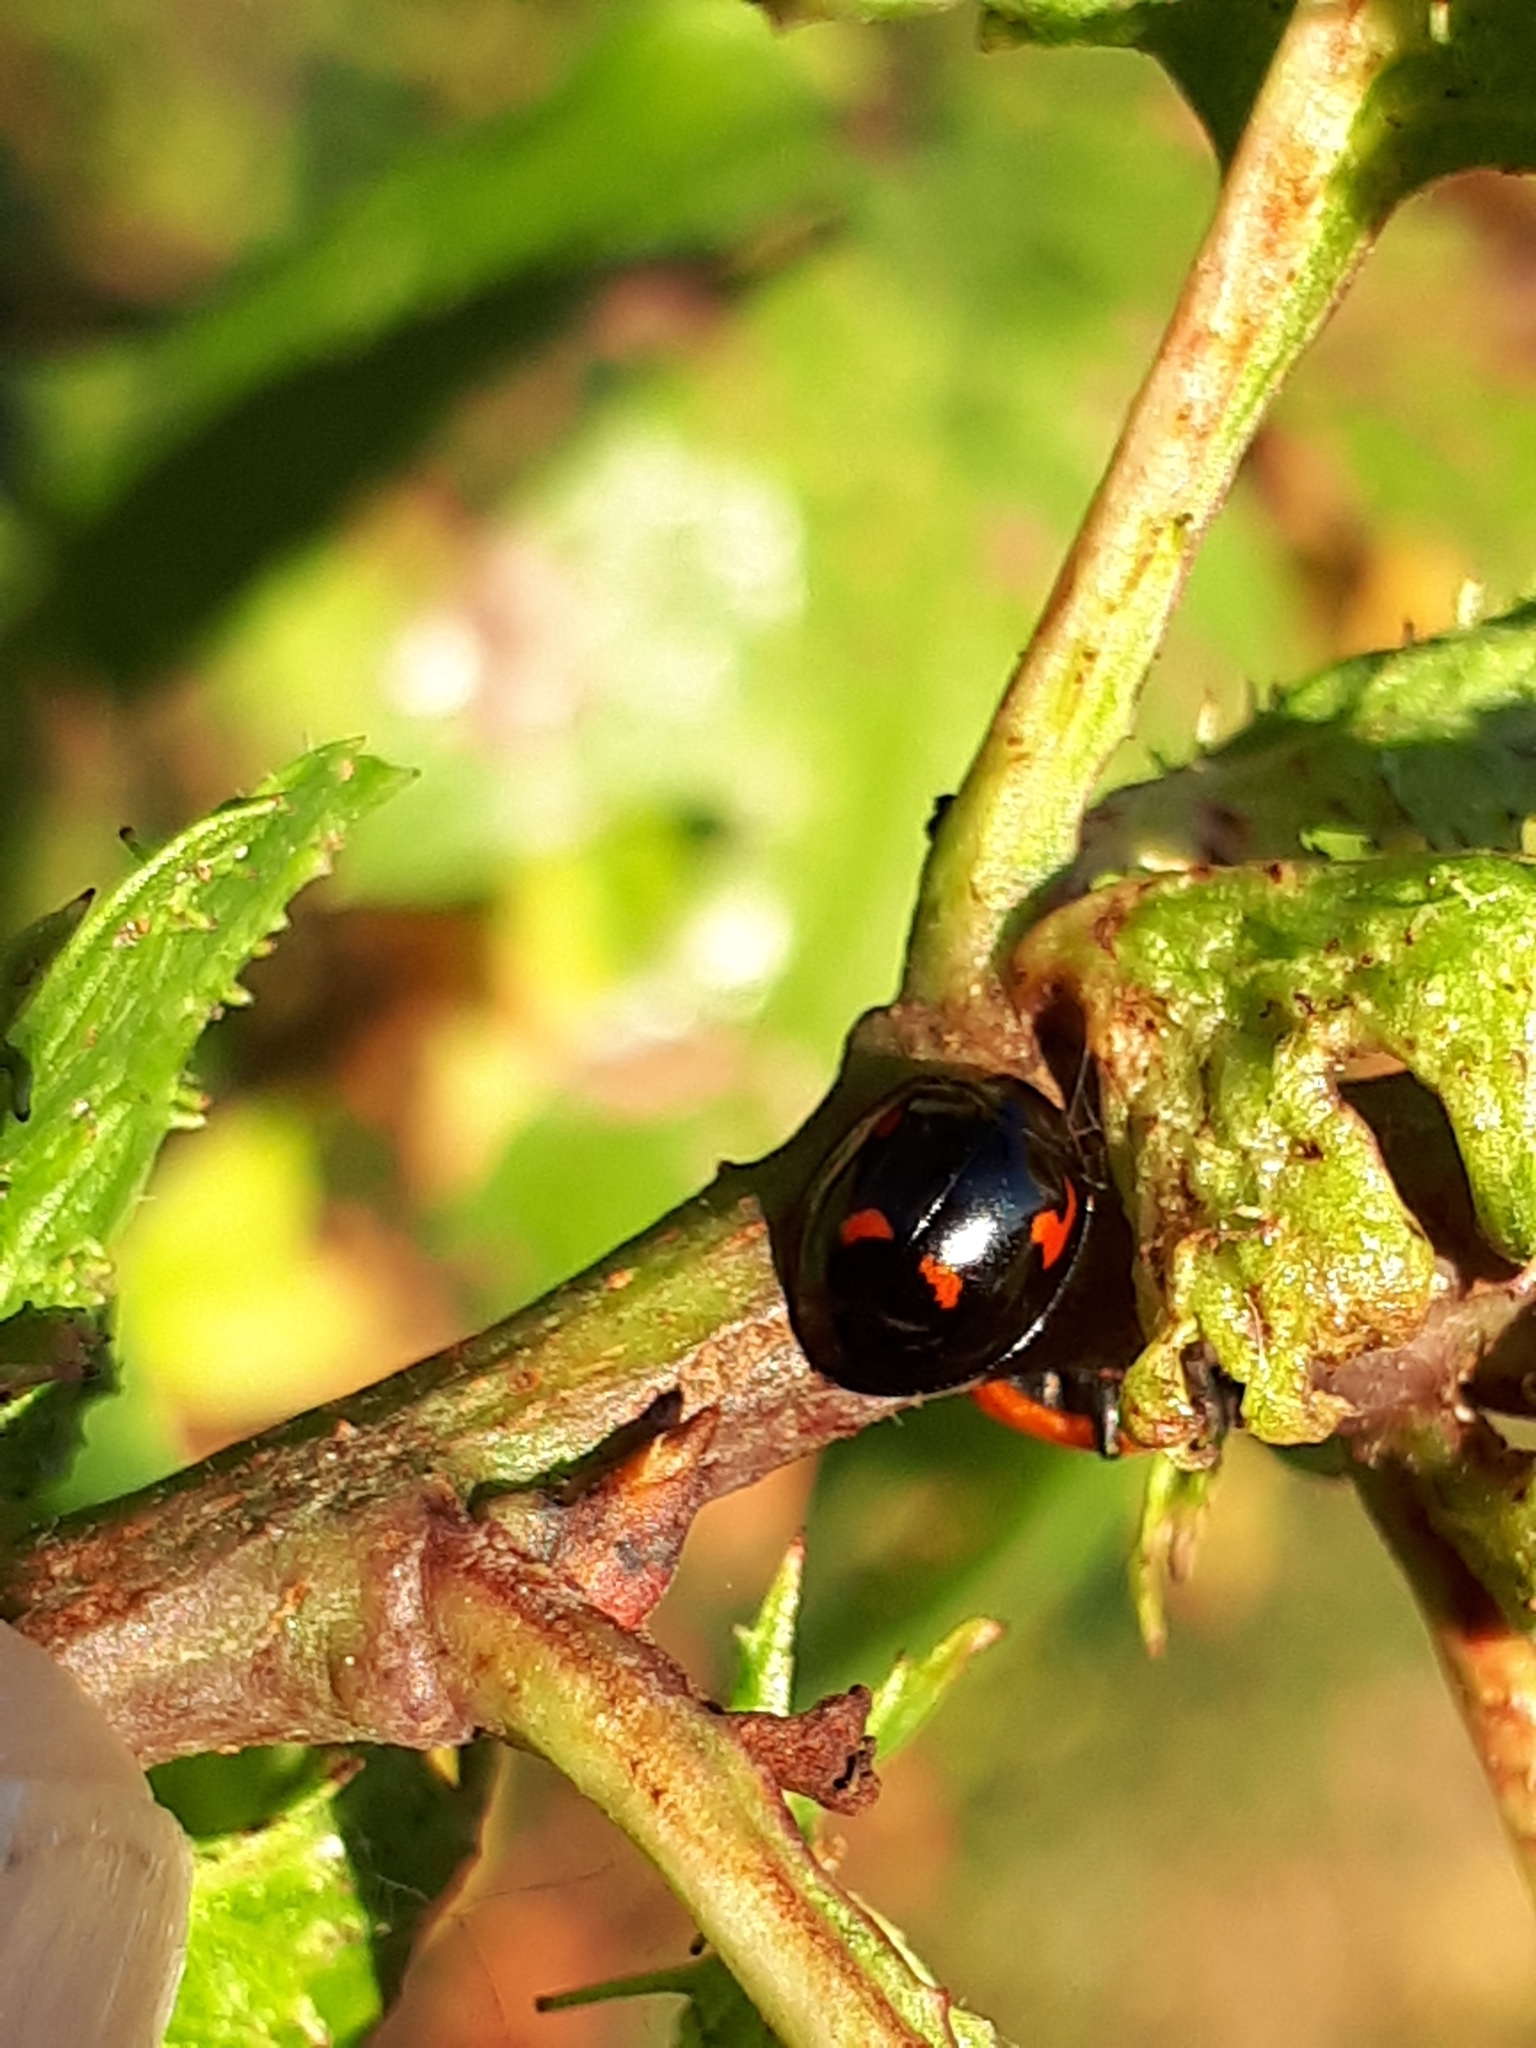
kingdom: Animalia
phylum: Arthropoda
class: Insecta
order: Coleoptera
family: Coccinellidae
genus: Brumus
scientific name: Brumus quadripustulatus
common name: Ladybird beetle
